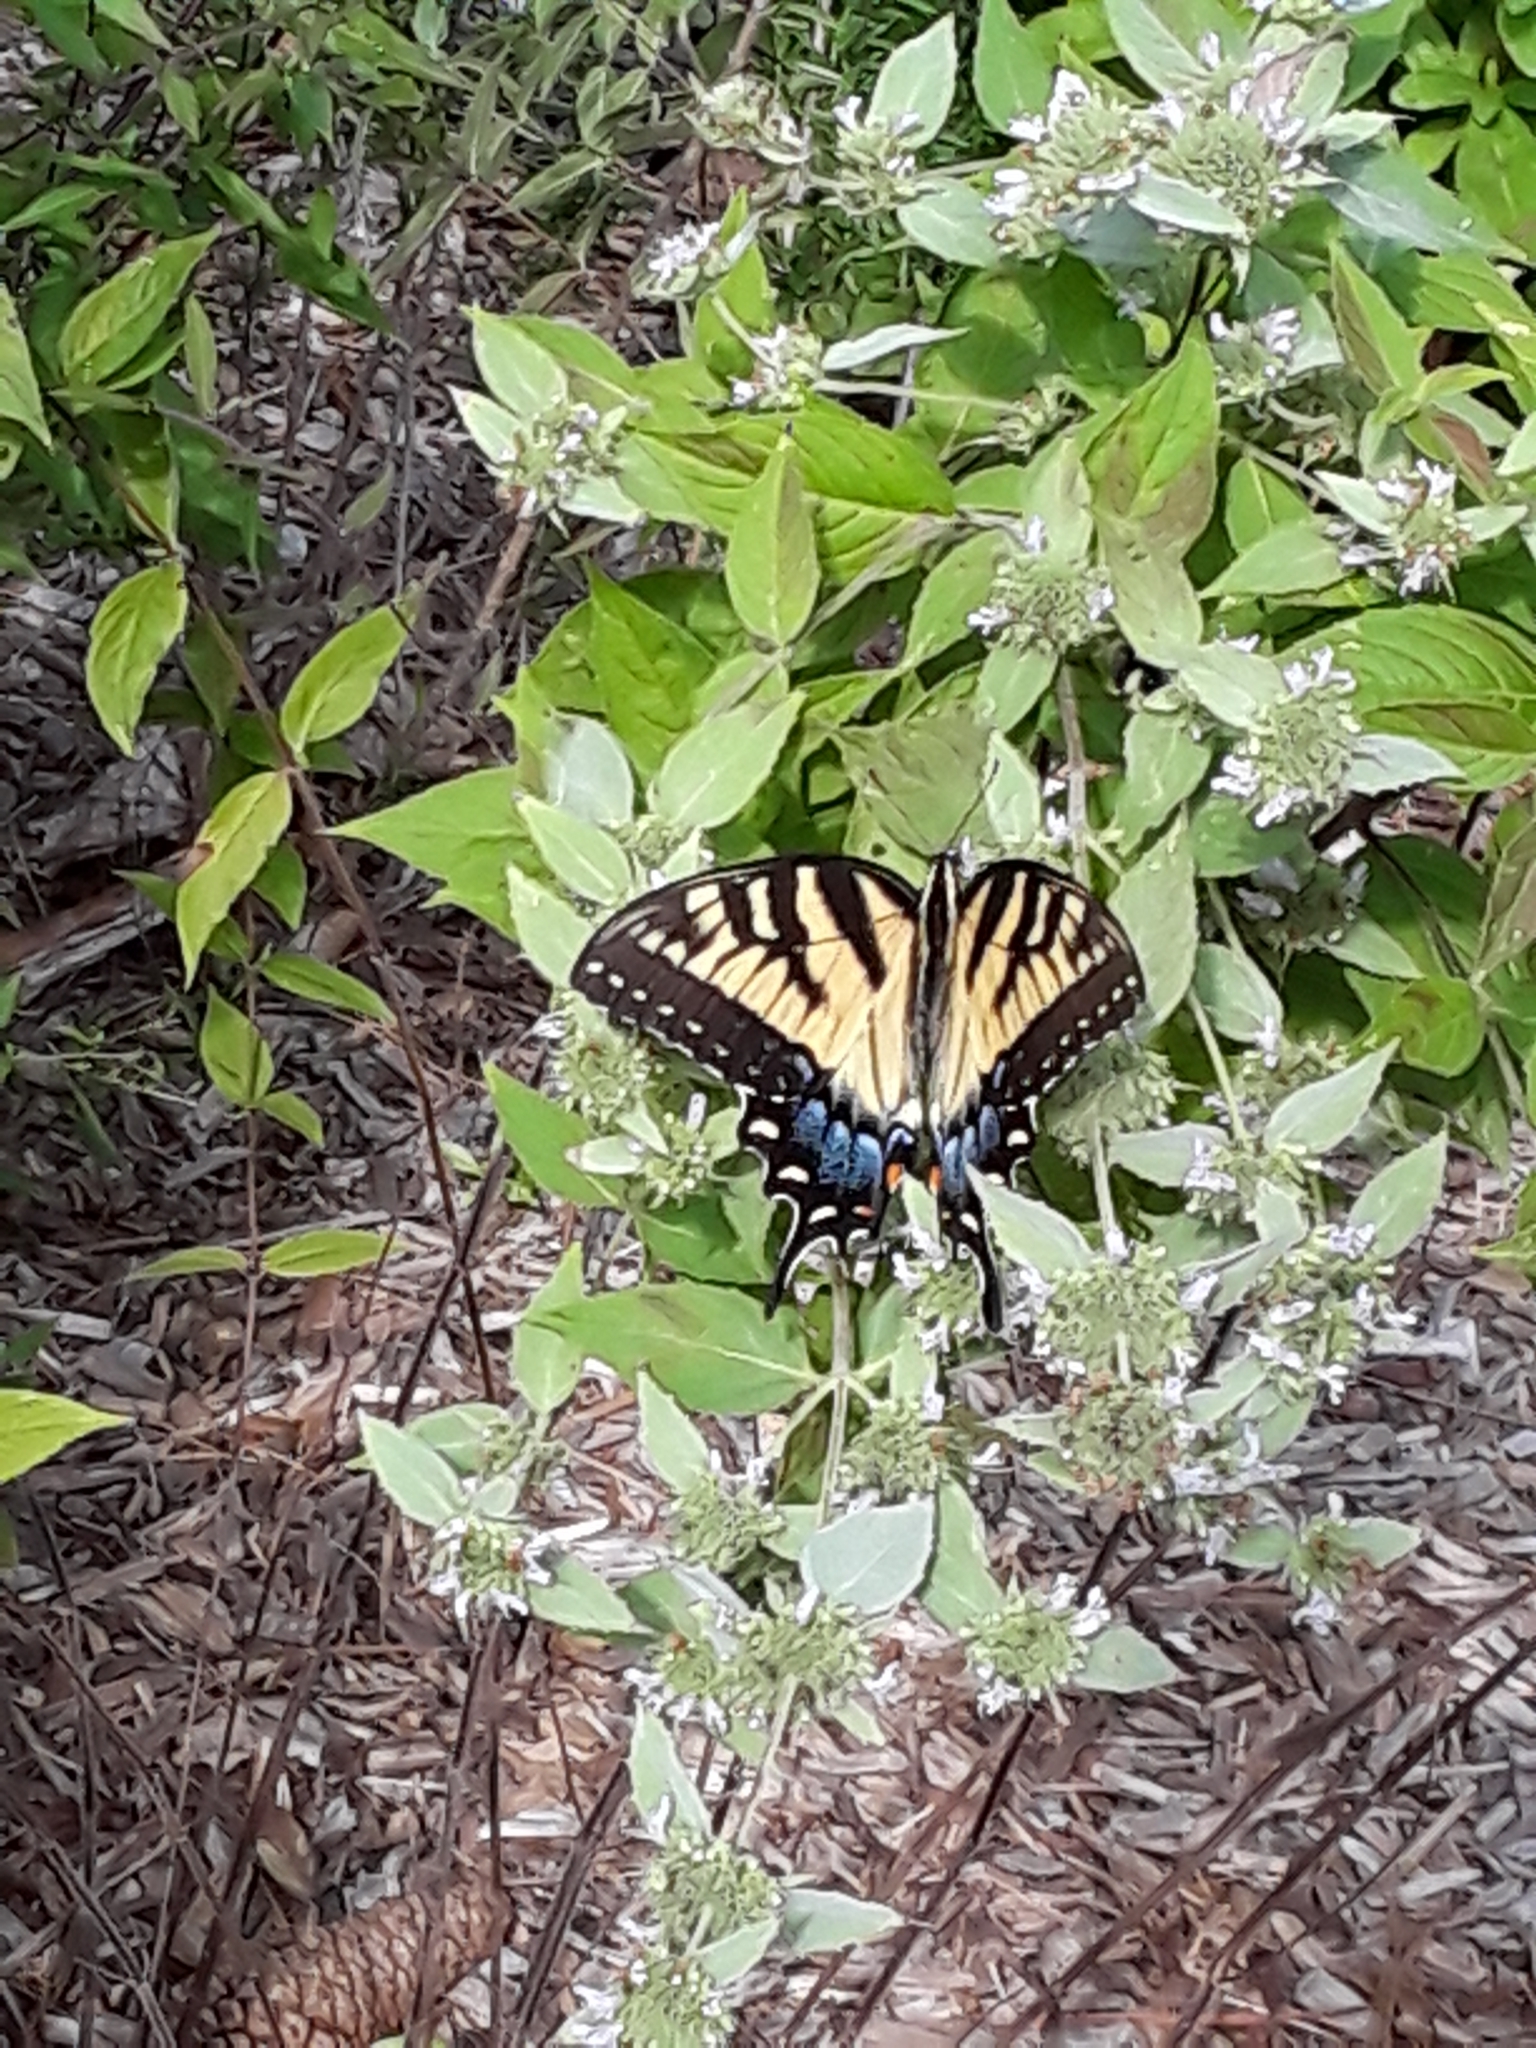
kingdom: Animalia
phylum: Arthropoda
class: Insecta
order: Lepidoptera
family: Papilionidae
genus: Papilio
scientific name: Papilio glaucus
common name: Tiger swallowtail
